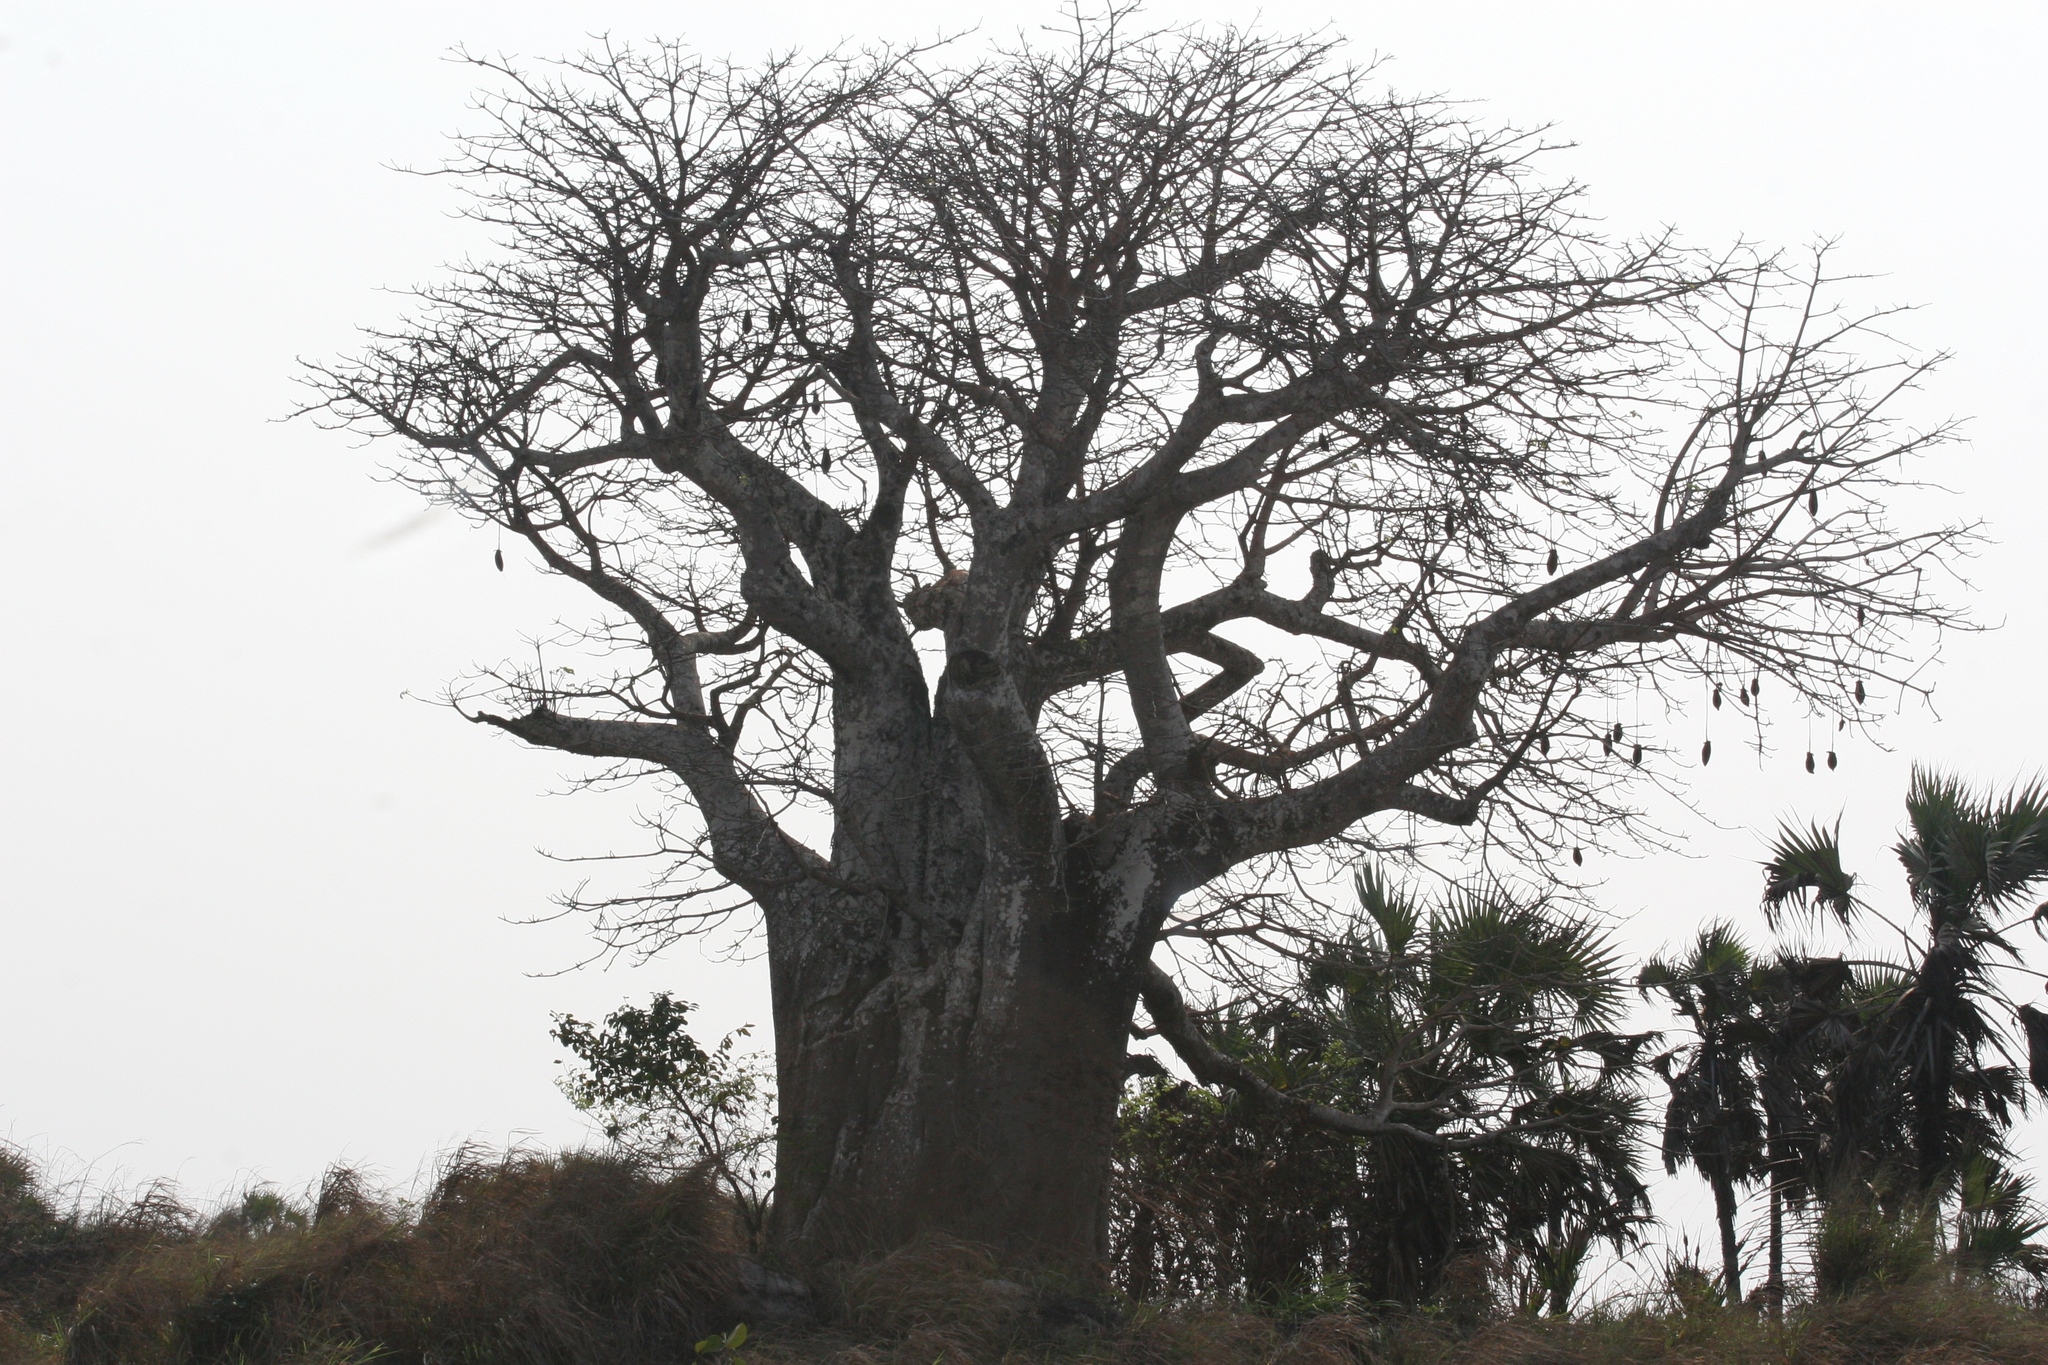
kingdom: Plantae
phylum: Tracheophyta
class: Magnoliopsida
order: Malvales
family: Malvaceae
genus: Adansonia
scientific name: Adansonia digitata
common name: Dead-rat-tree
